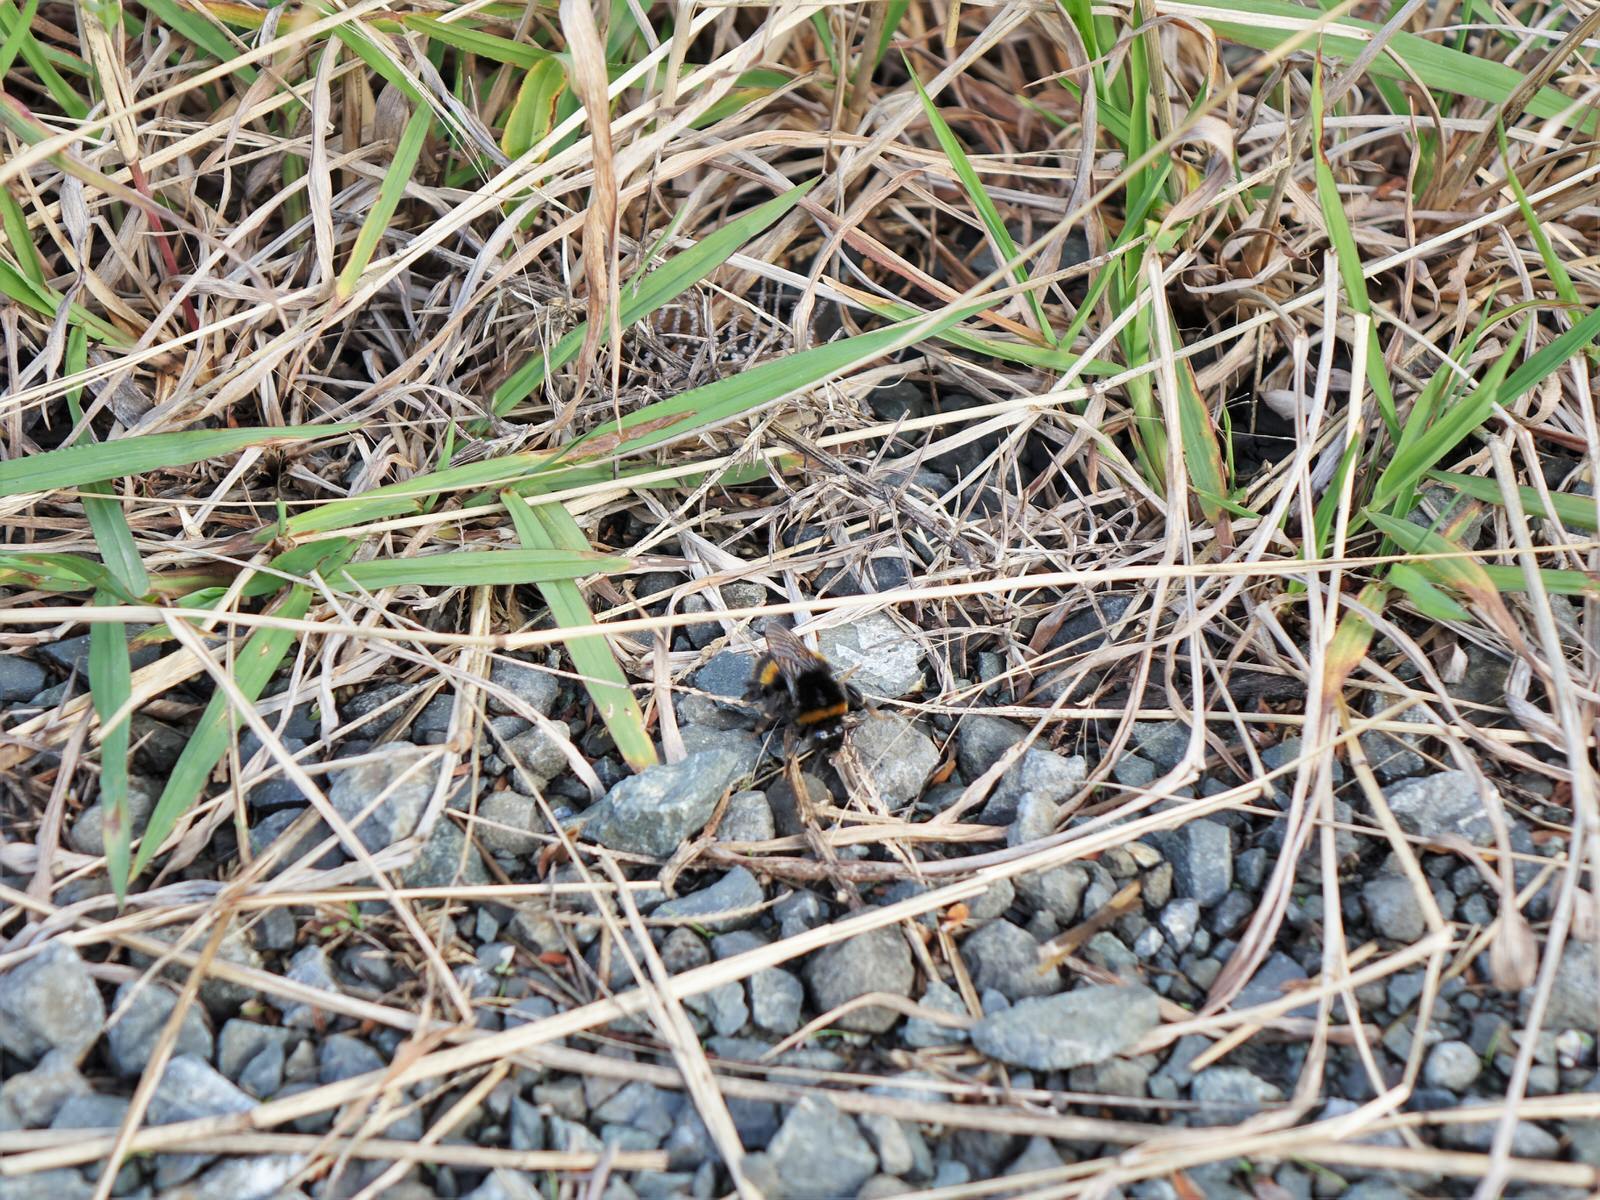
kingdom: Animalia
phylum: Arthropoda
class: Insecta
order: Hymenoptera
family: Apidae
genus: Bombus
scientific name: Bombus terrestris
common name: Buff-tailed bumblebee
